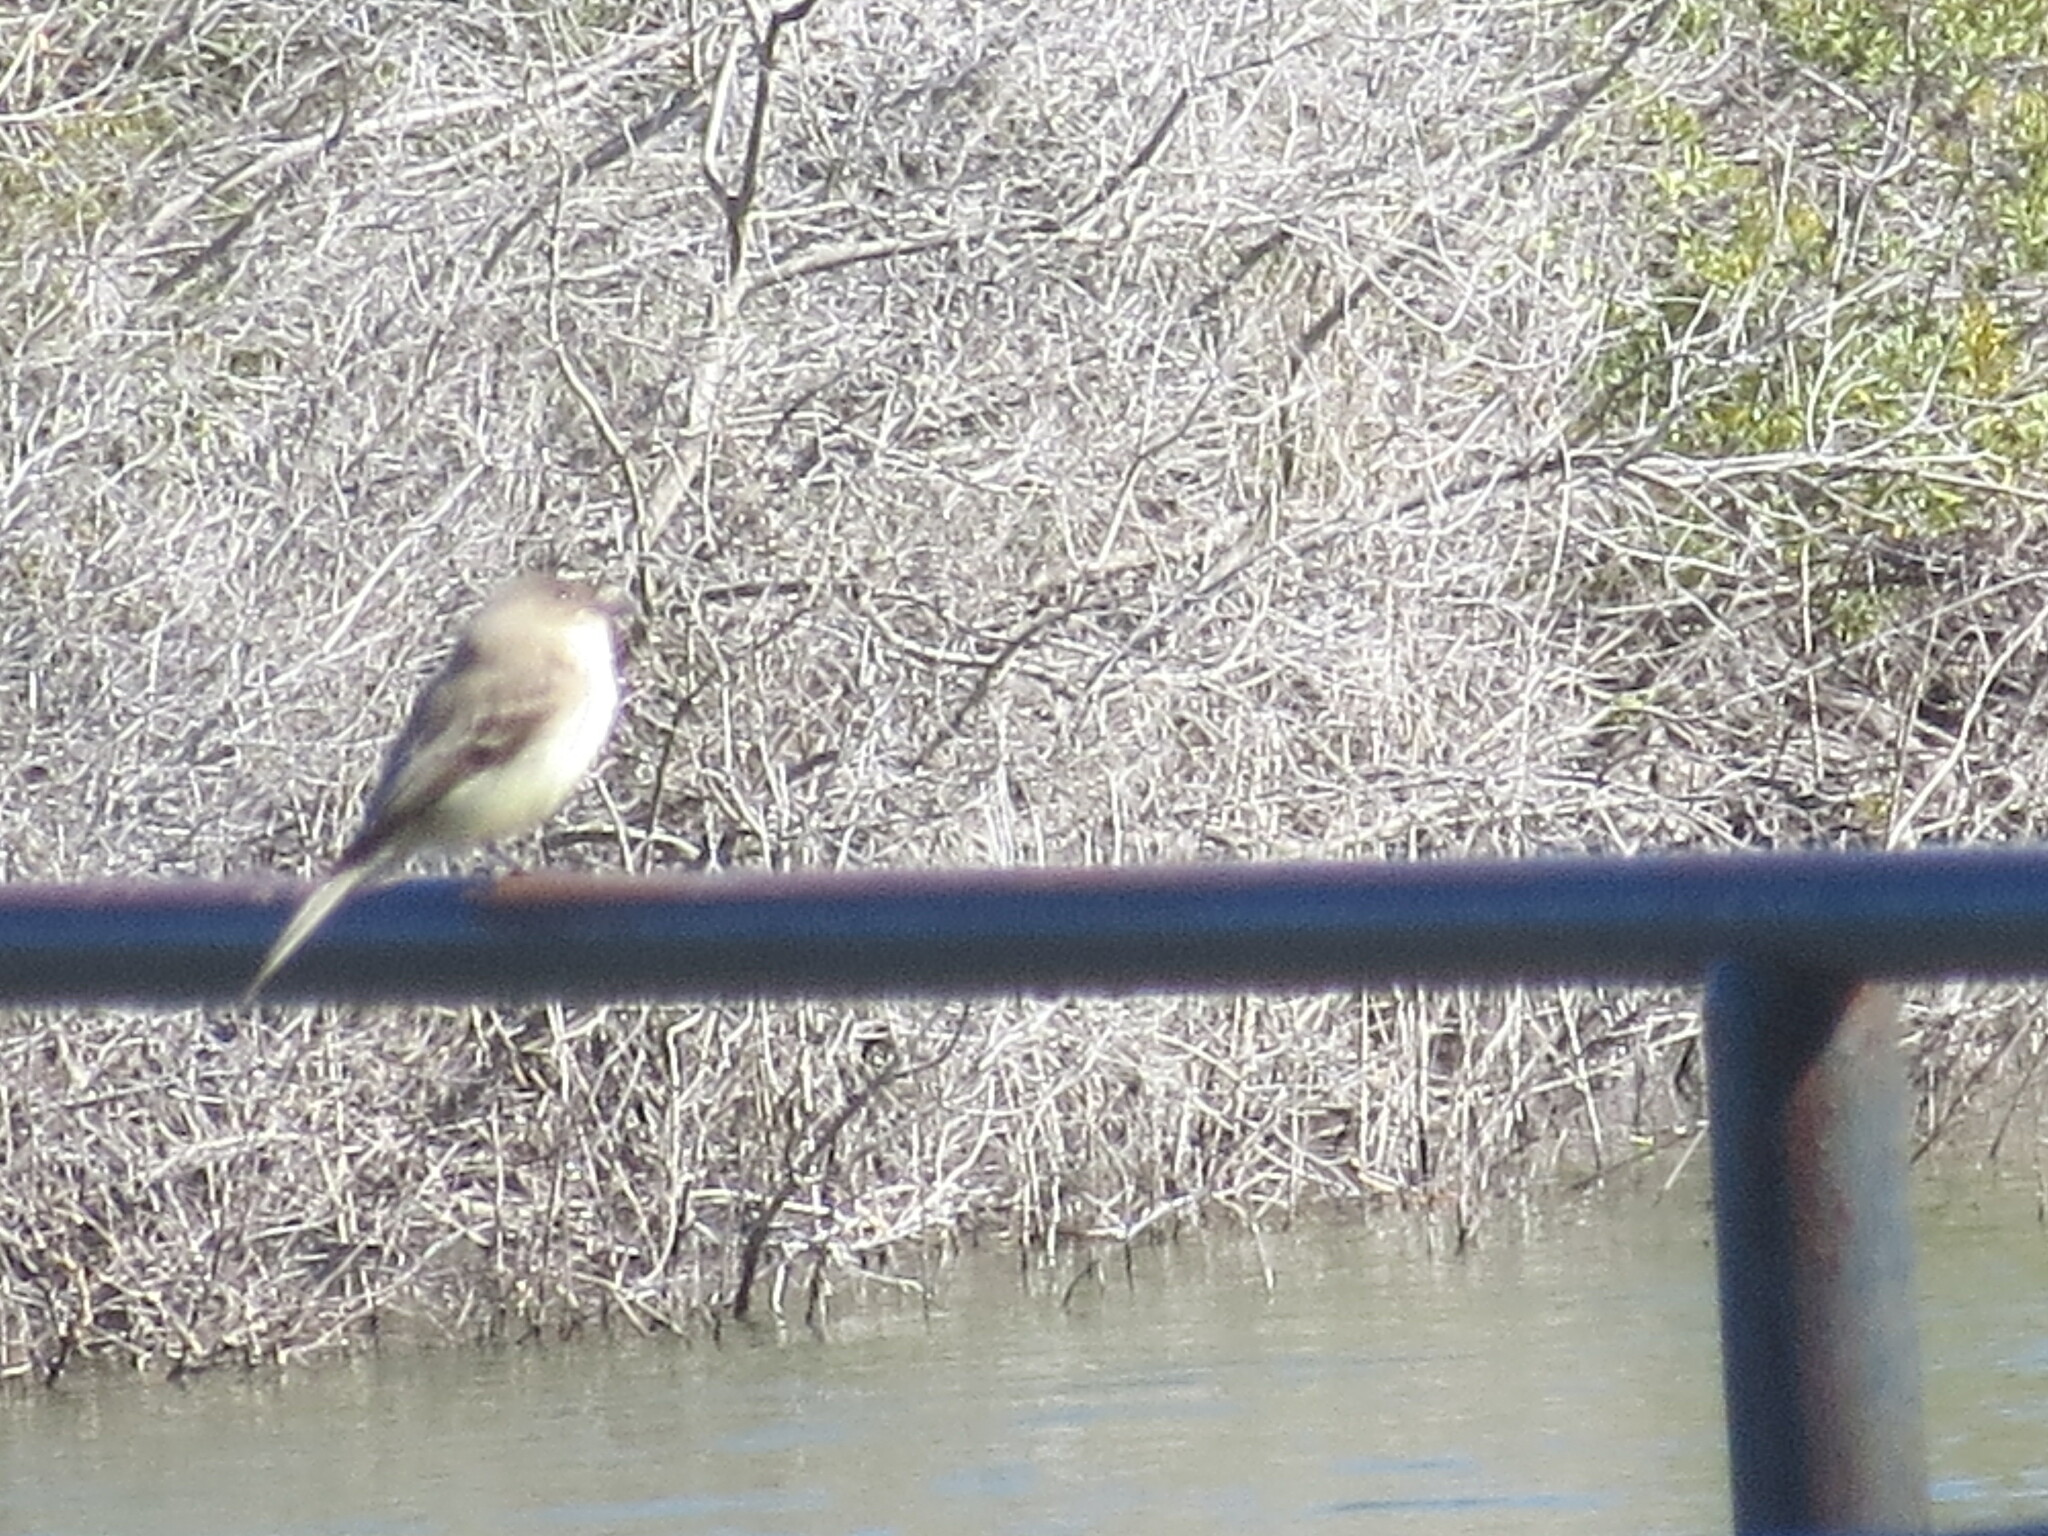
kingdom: Animalia
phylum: Chordata
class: Aves
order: Passeriformes
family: Tyrannidae
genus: Sayornis
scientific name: Sayornis phoebe
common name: Eastern phoebe
